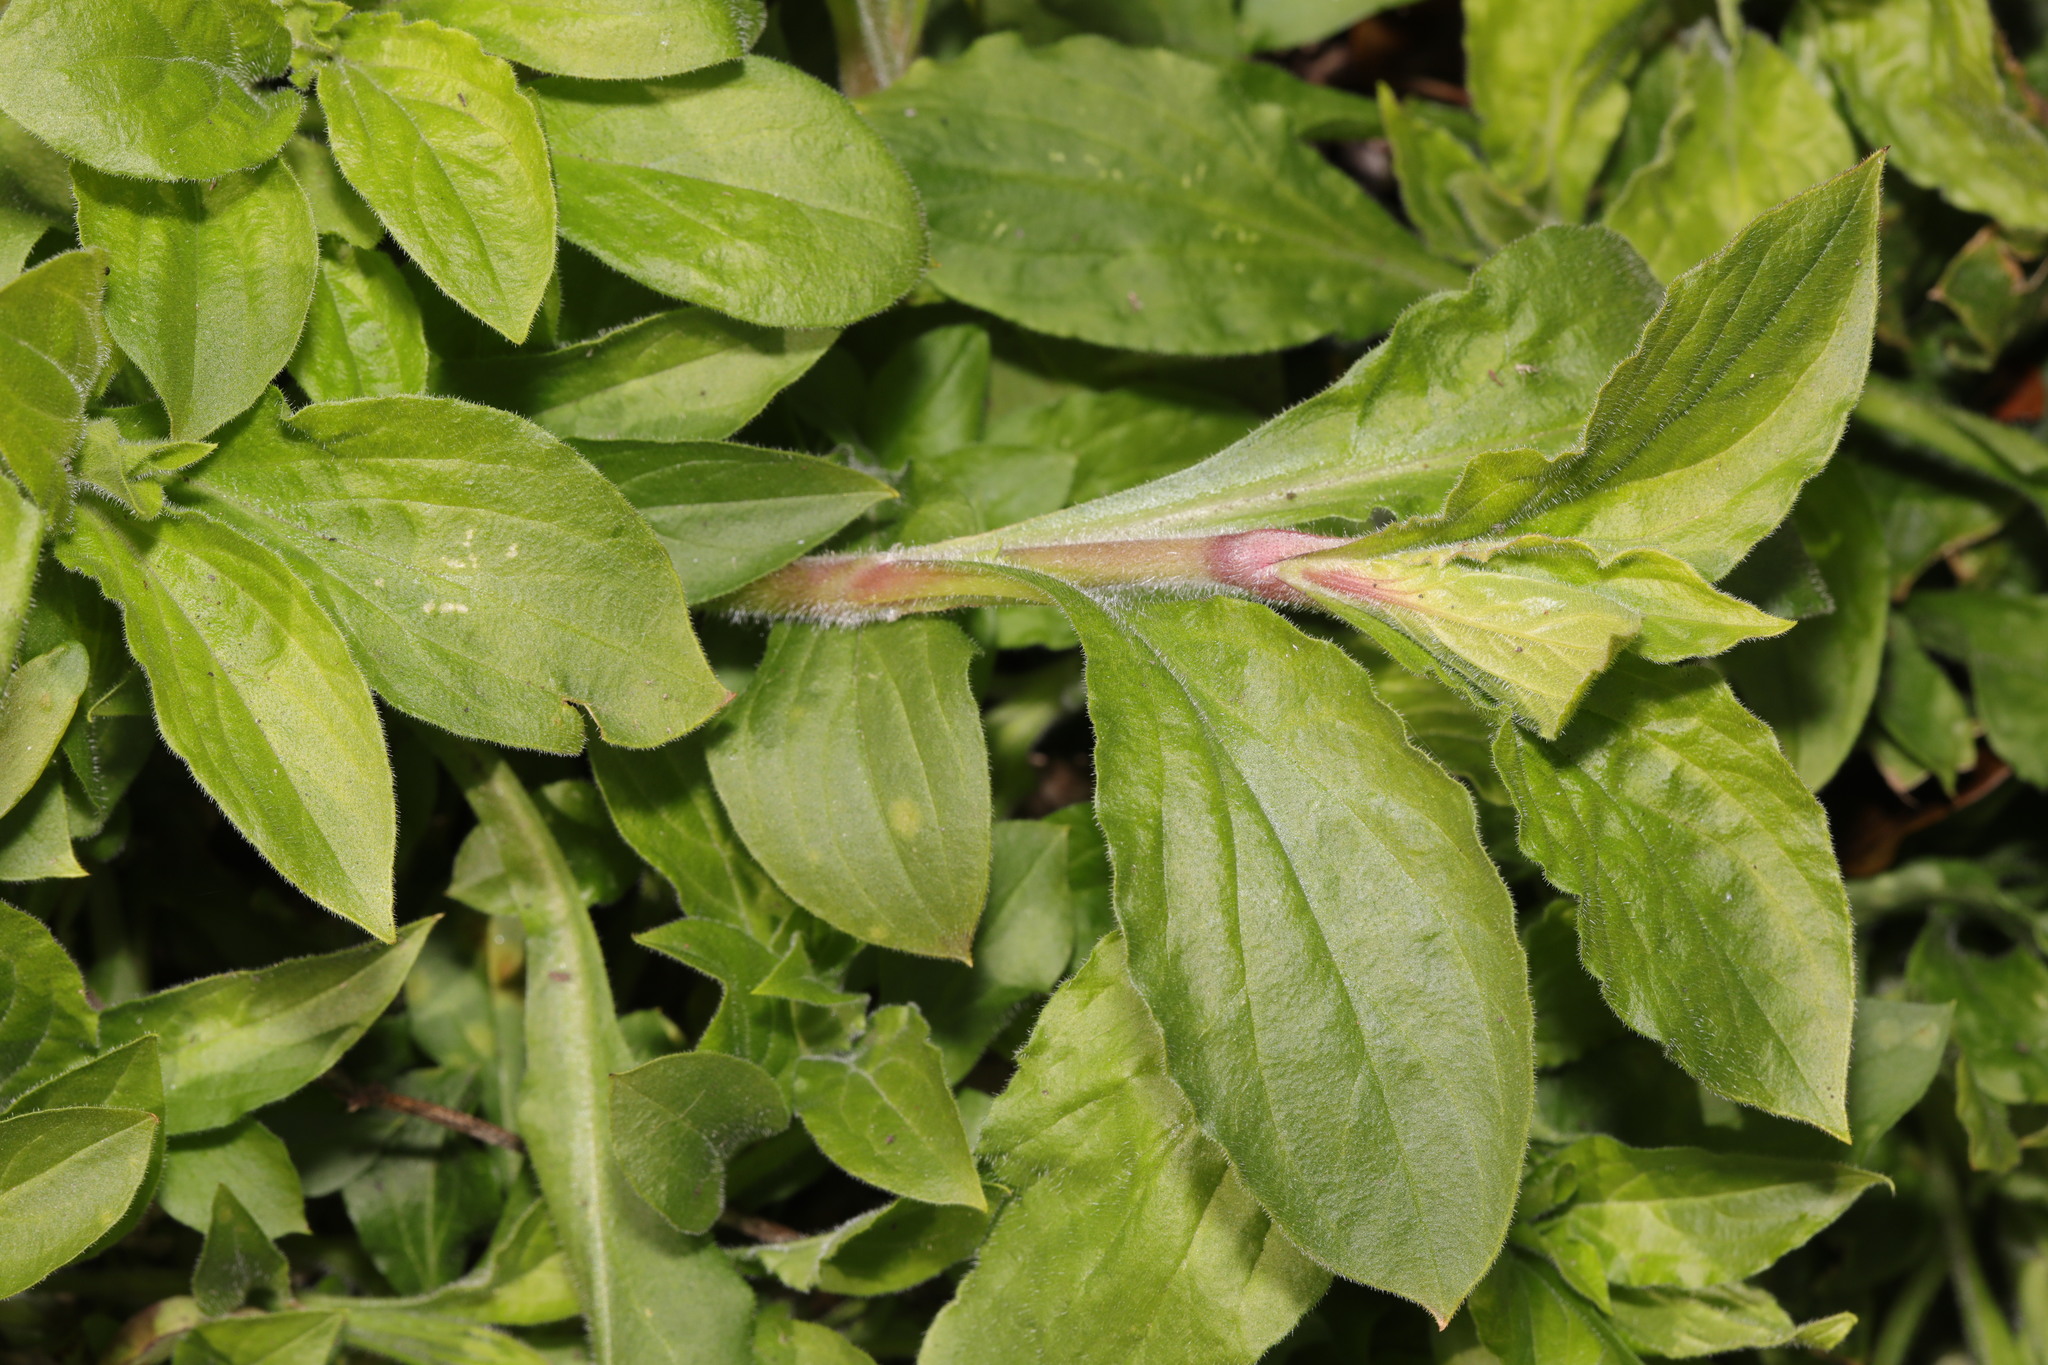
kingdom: Plantae
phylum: Tracheophyta
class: Magnoliopsida
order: Caryophyllales
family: Caryophyllaceae
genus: Silene
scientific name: Silene dioica
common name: Red campion
